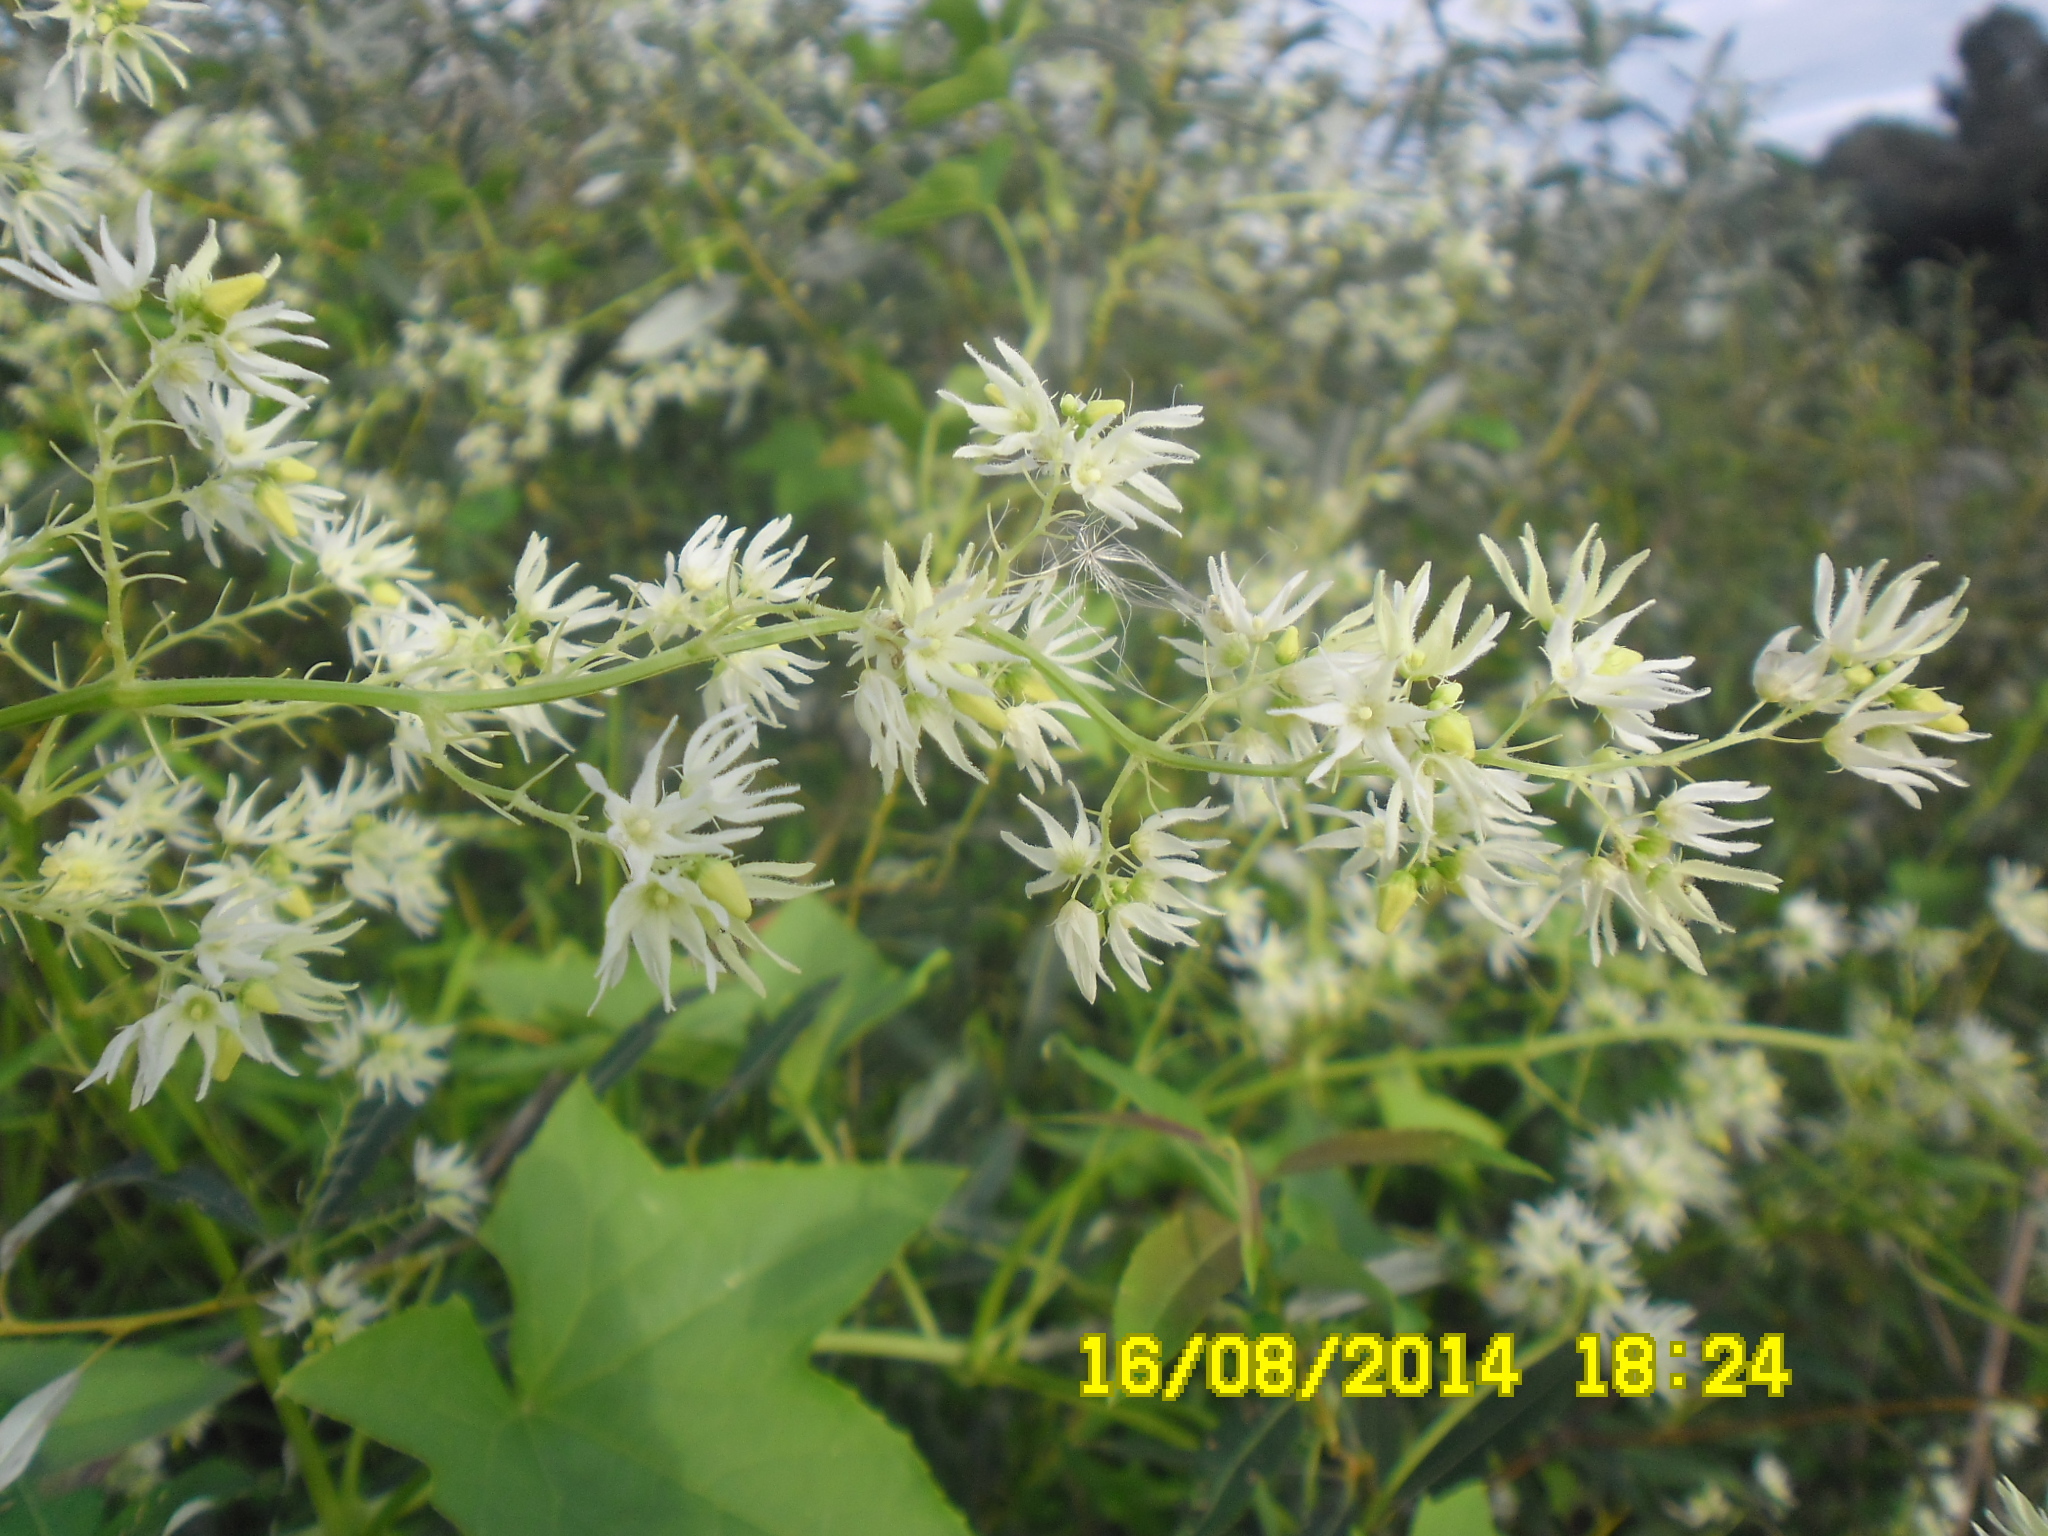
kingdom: Plantae
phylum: Tracheophyta
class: Magnoliopsida
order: Cucurbitales
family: Cucurbitaceae
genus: Echinocystis
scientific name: Echinocystis lobata
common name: Wild cucumber
